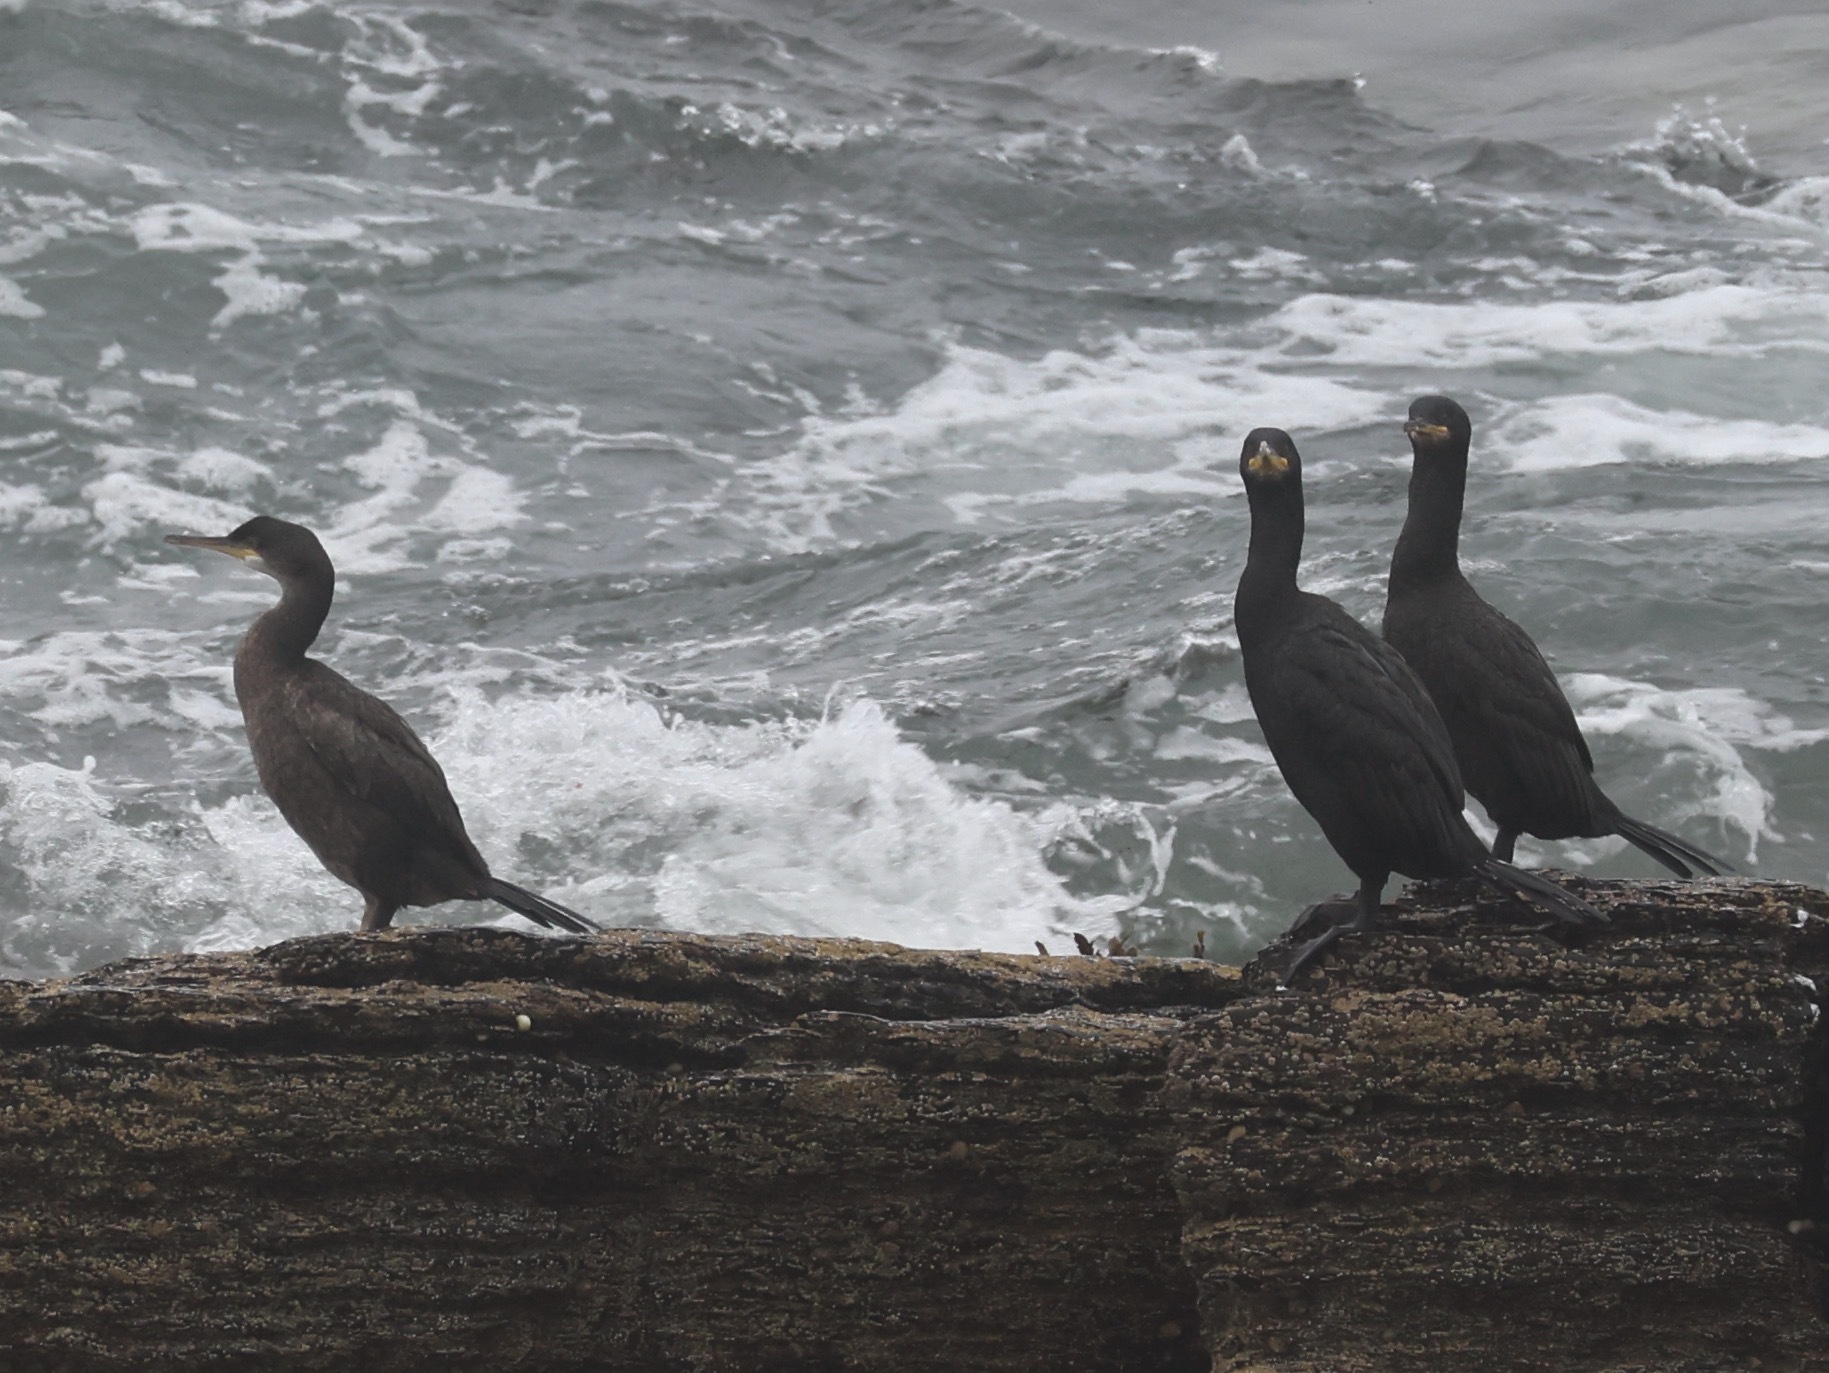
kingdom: Animalia
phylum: Chordata
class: Aves
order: Suliformes
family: Phalacrocoracidae
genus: Phalacrocorax
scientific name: Phalacrocorax aristotelis
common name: European shag
